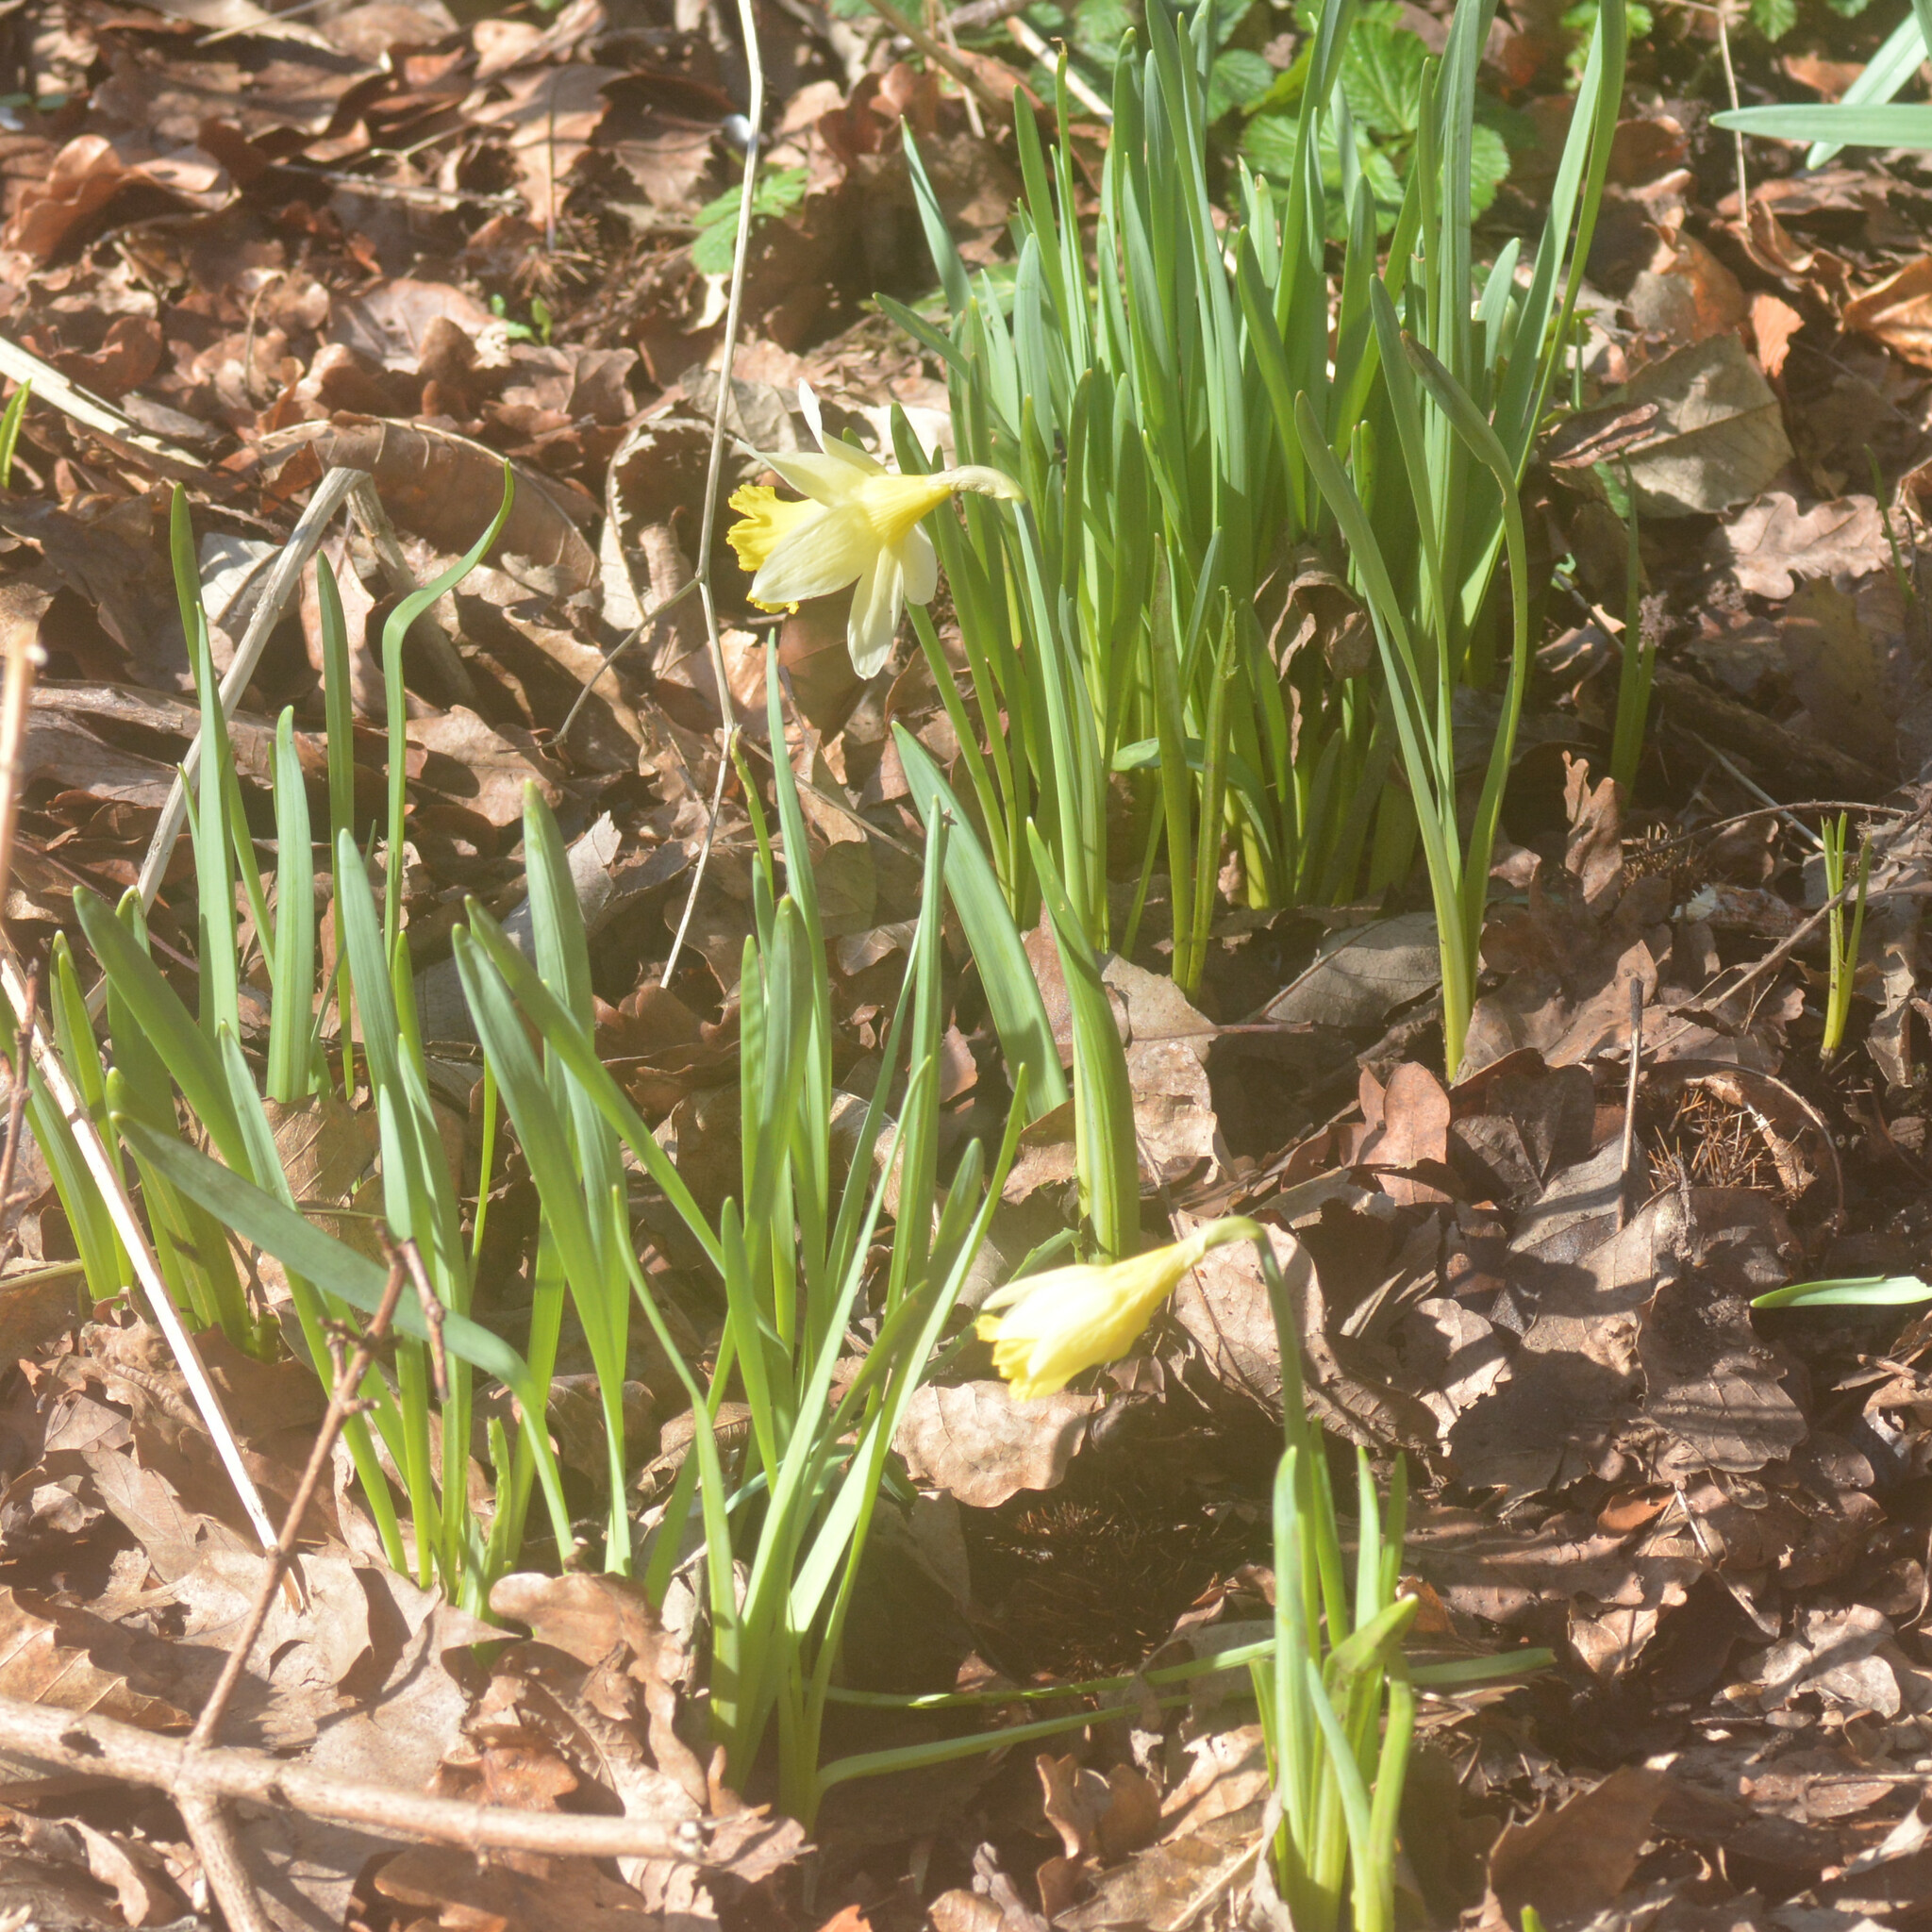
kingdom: Plantae
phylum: Tracheophyta
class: Liliopsida
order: Asparagales
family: Amaryllidaceae
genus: Narcissus
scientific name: Narcissus pseudonarcissus
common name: Daffodil
